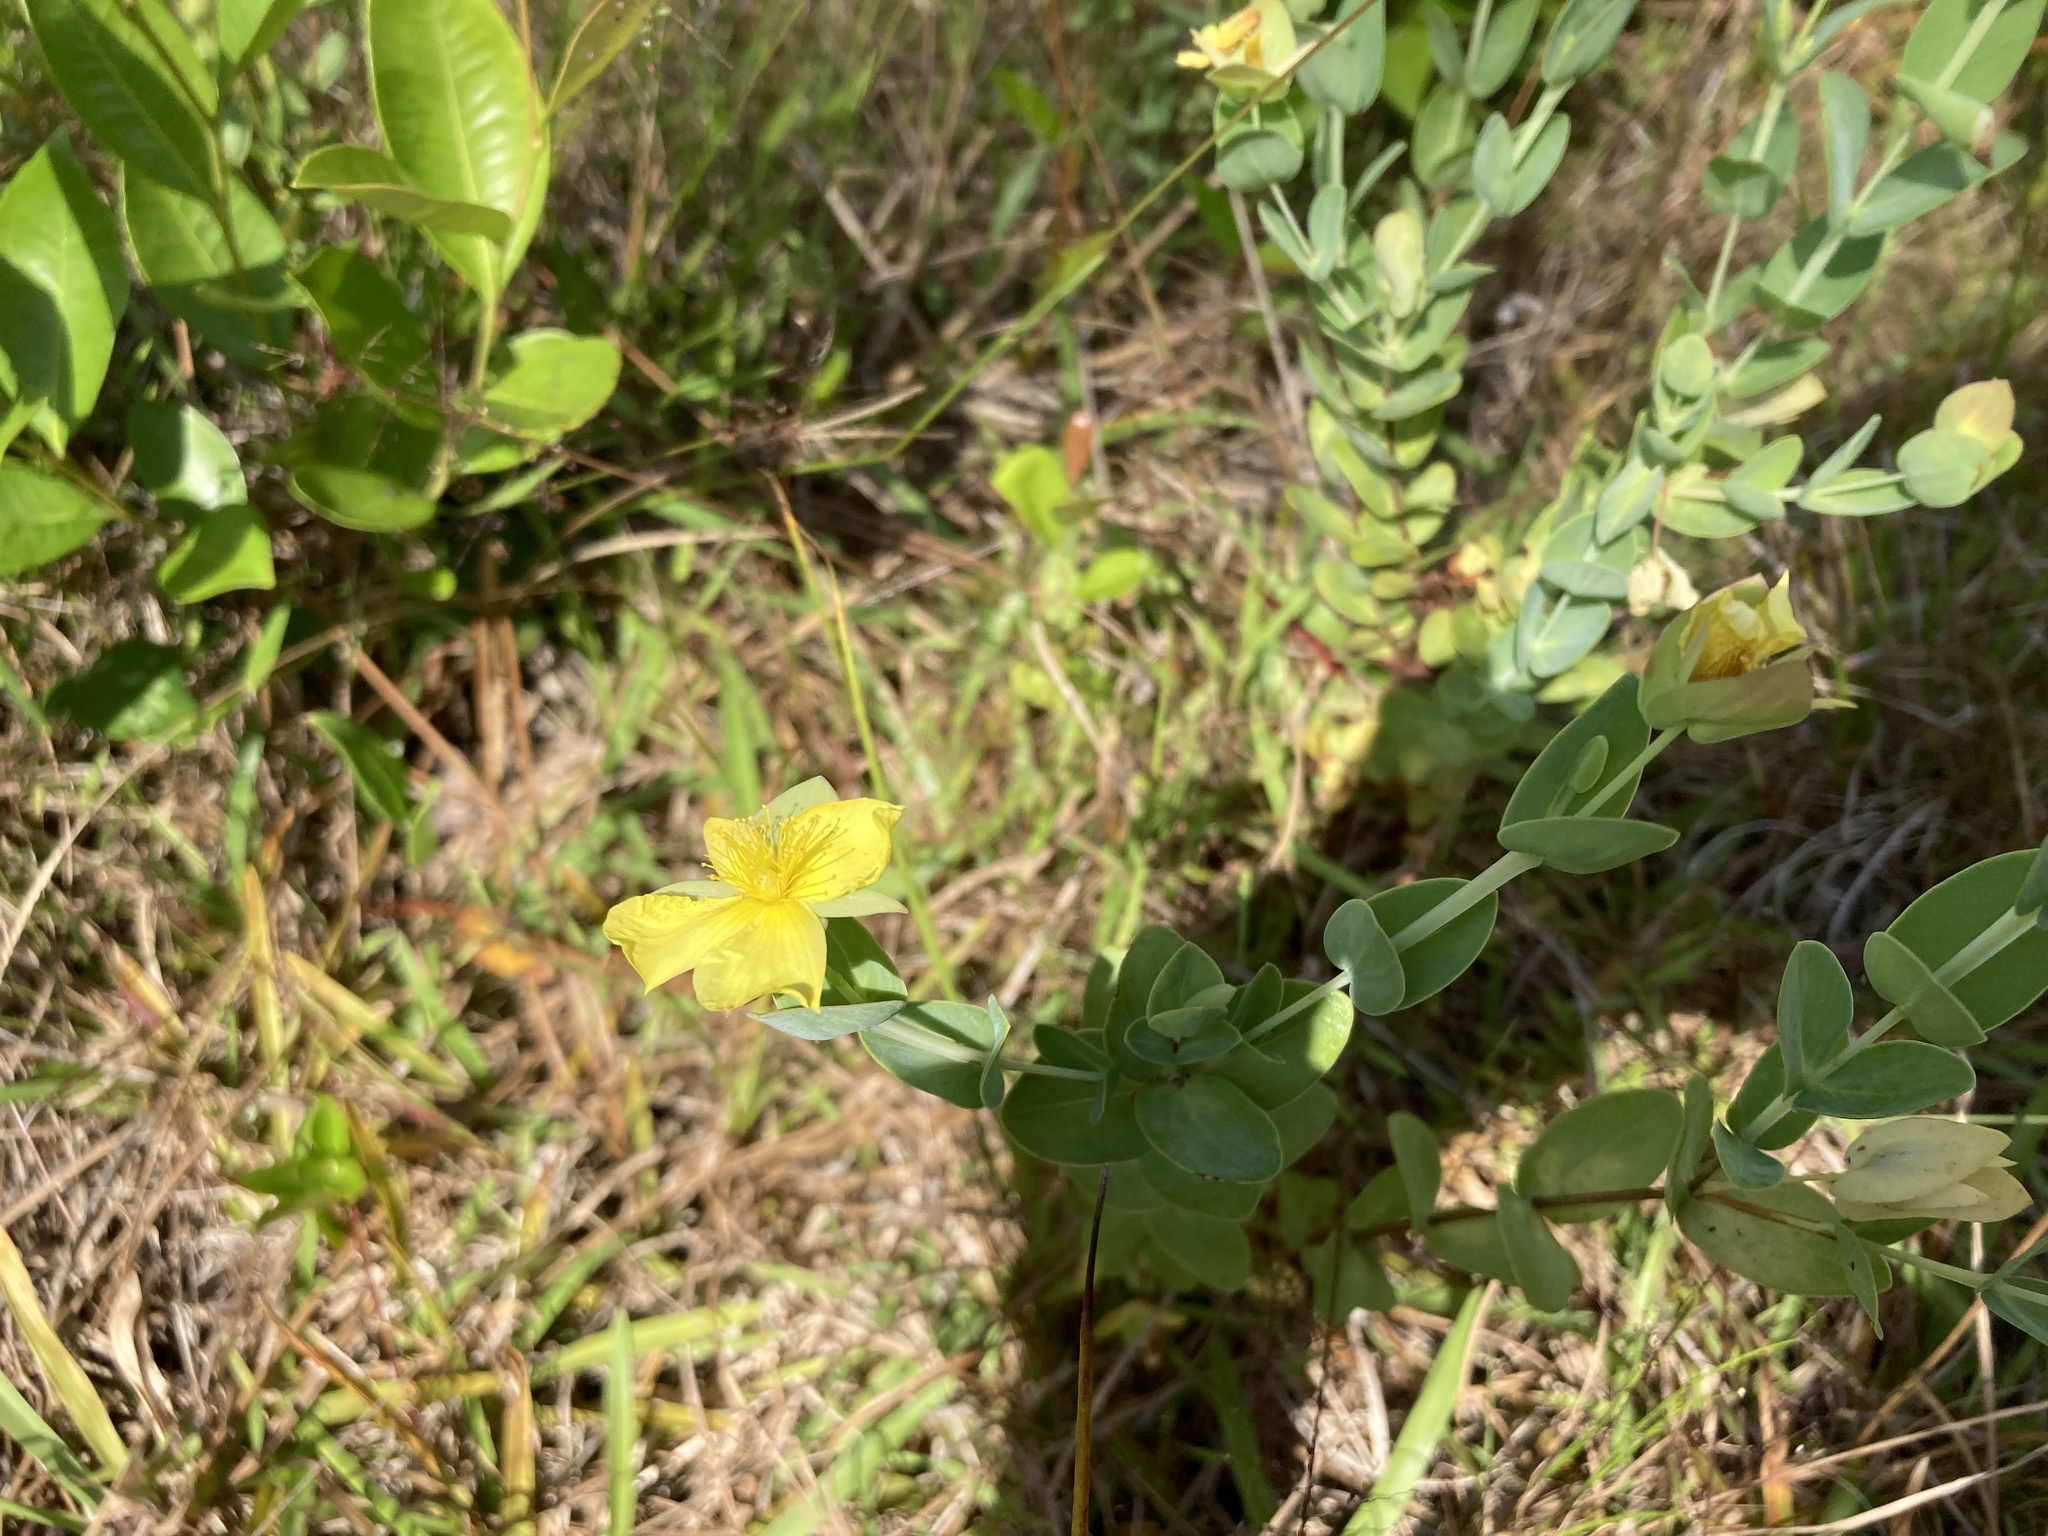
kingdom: Plantae
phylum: Tracheophyta
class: Magnoliopsida
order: Malpighiales
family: Hypericaceae
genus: Hypericum
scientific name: Hypericum tetrapetalum
